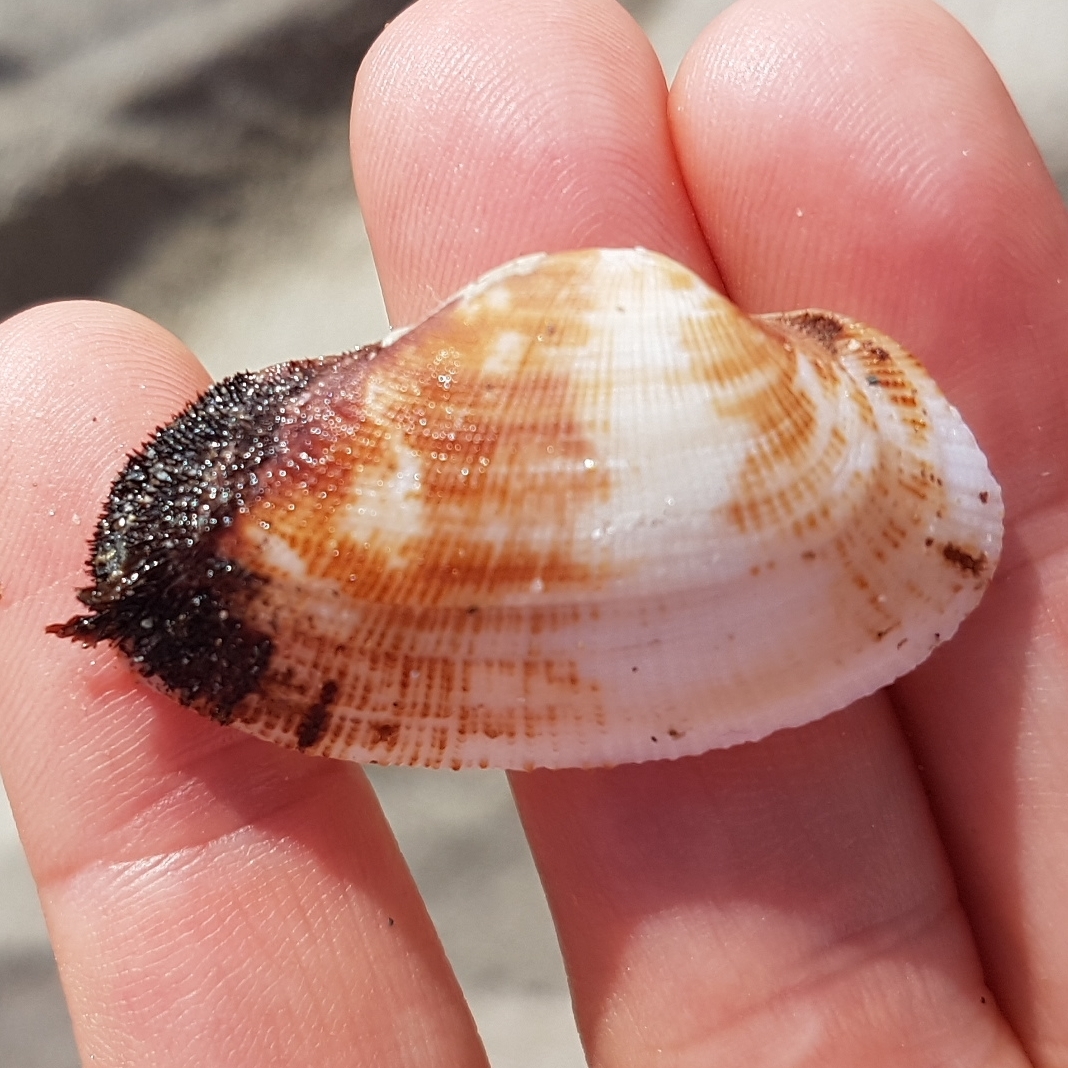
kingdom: Animalia
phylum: Mollusca
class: Bivalvia
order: Arcida
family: Arcidae
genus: Barbatia
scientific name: Barbatia barbata
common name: Bearded ark
